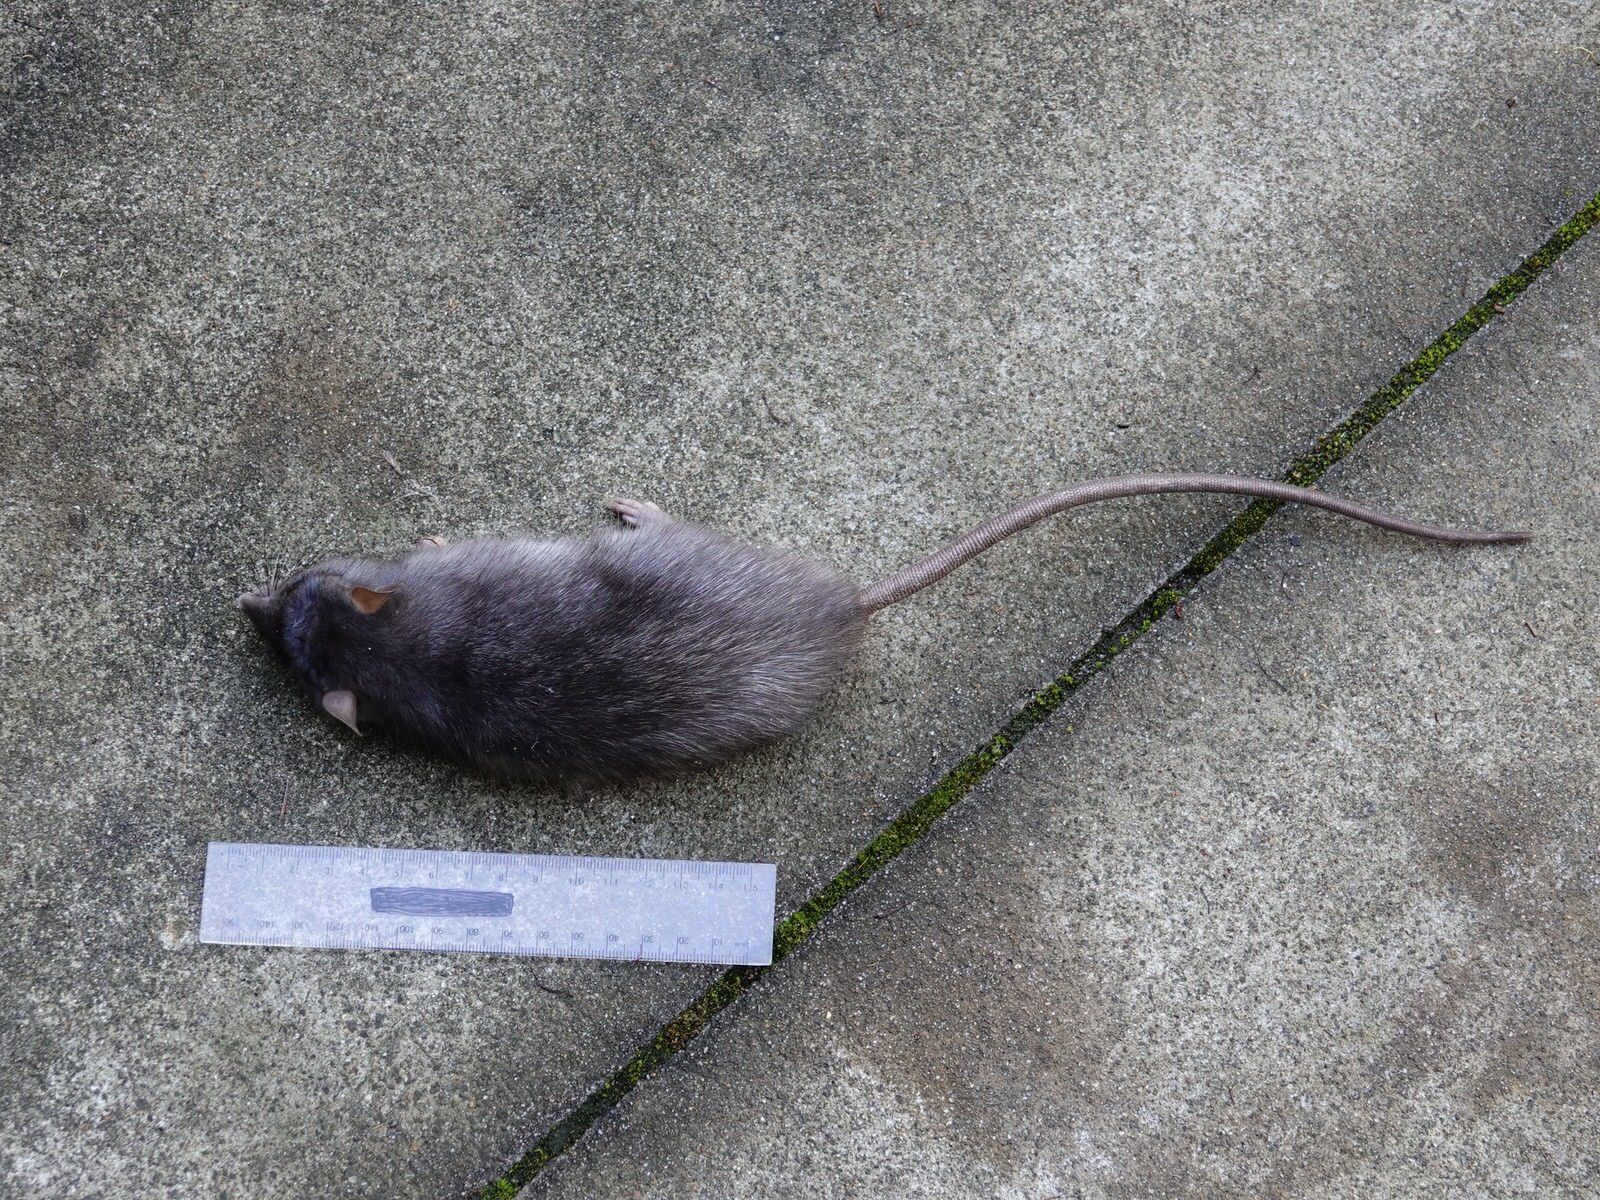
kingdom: Animalia
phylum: Chordata
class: Mammalia
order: Rodentia
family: Muridae
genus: Rattus
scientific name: Rattus rattus
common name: Black rat
